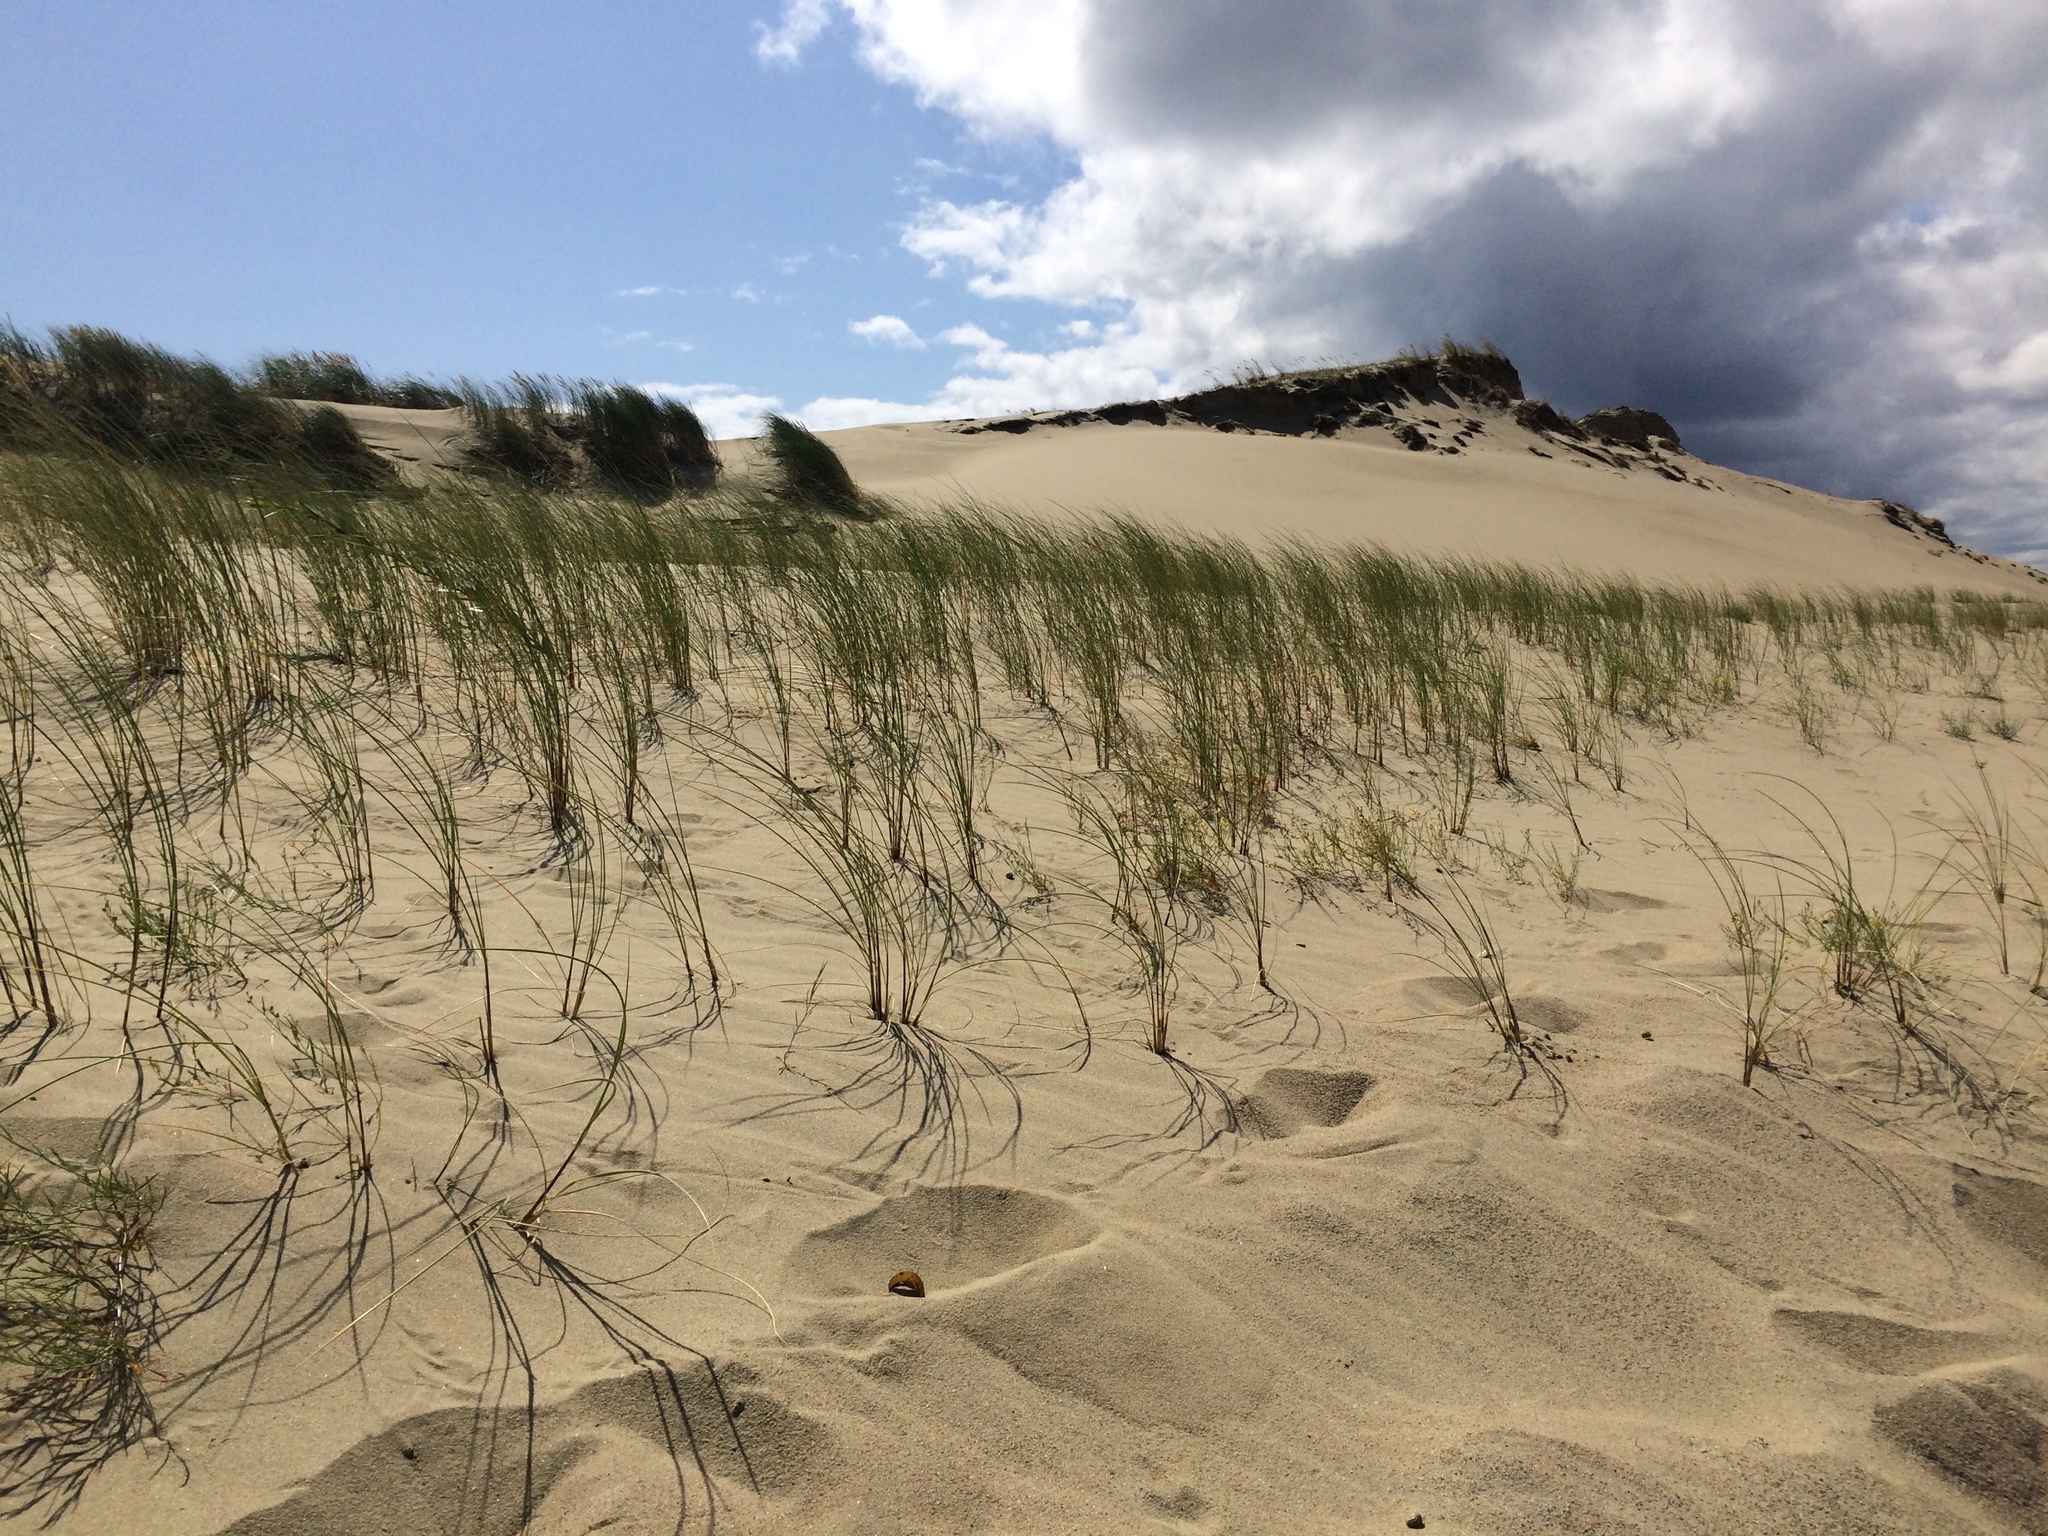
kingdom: Plantae
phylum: Tracheophyta
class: Liliopsida
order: Poales
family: Poaceae
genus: Calamagrostis
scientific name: Calamagrostis arenaria
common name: European beachgrass
